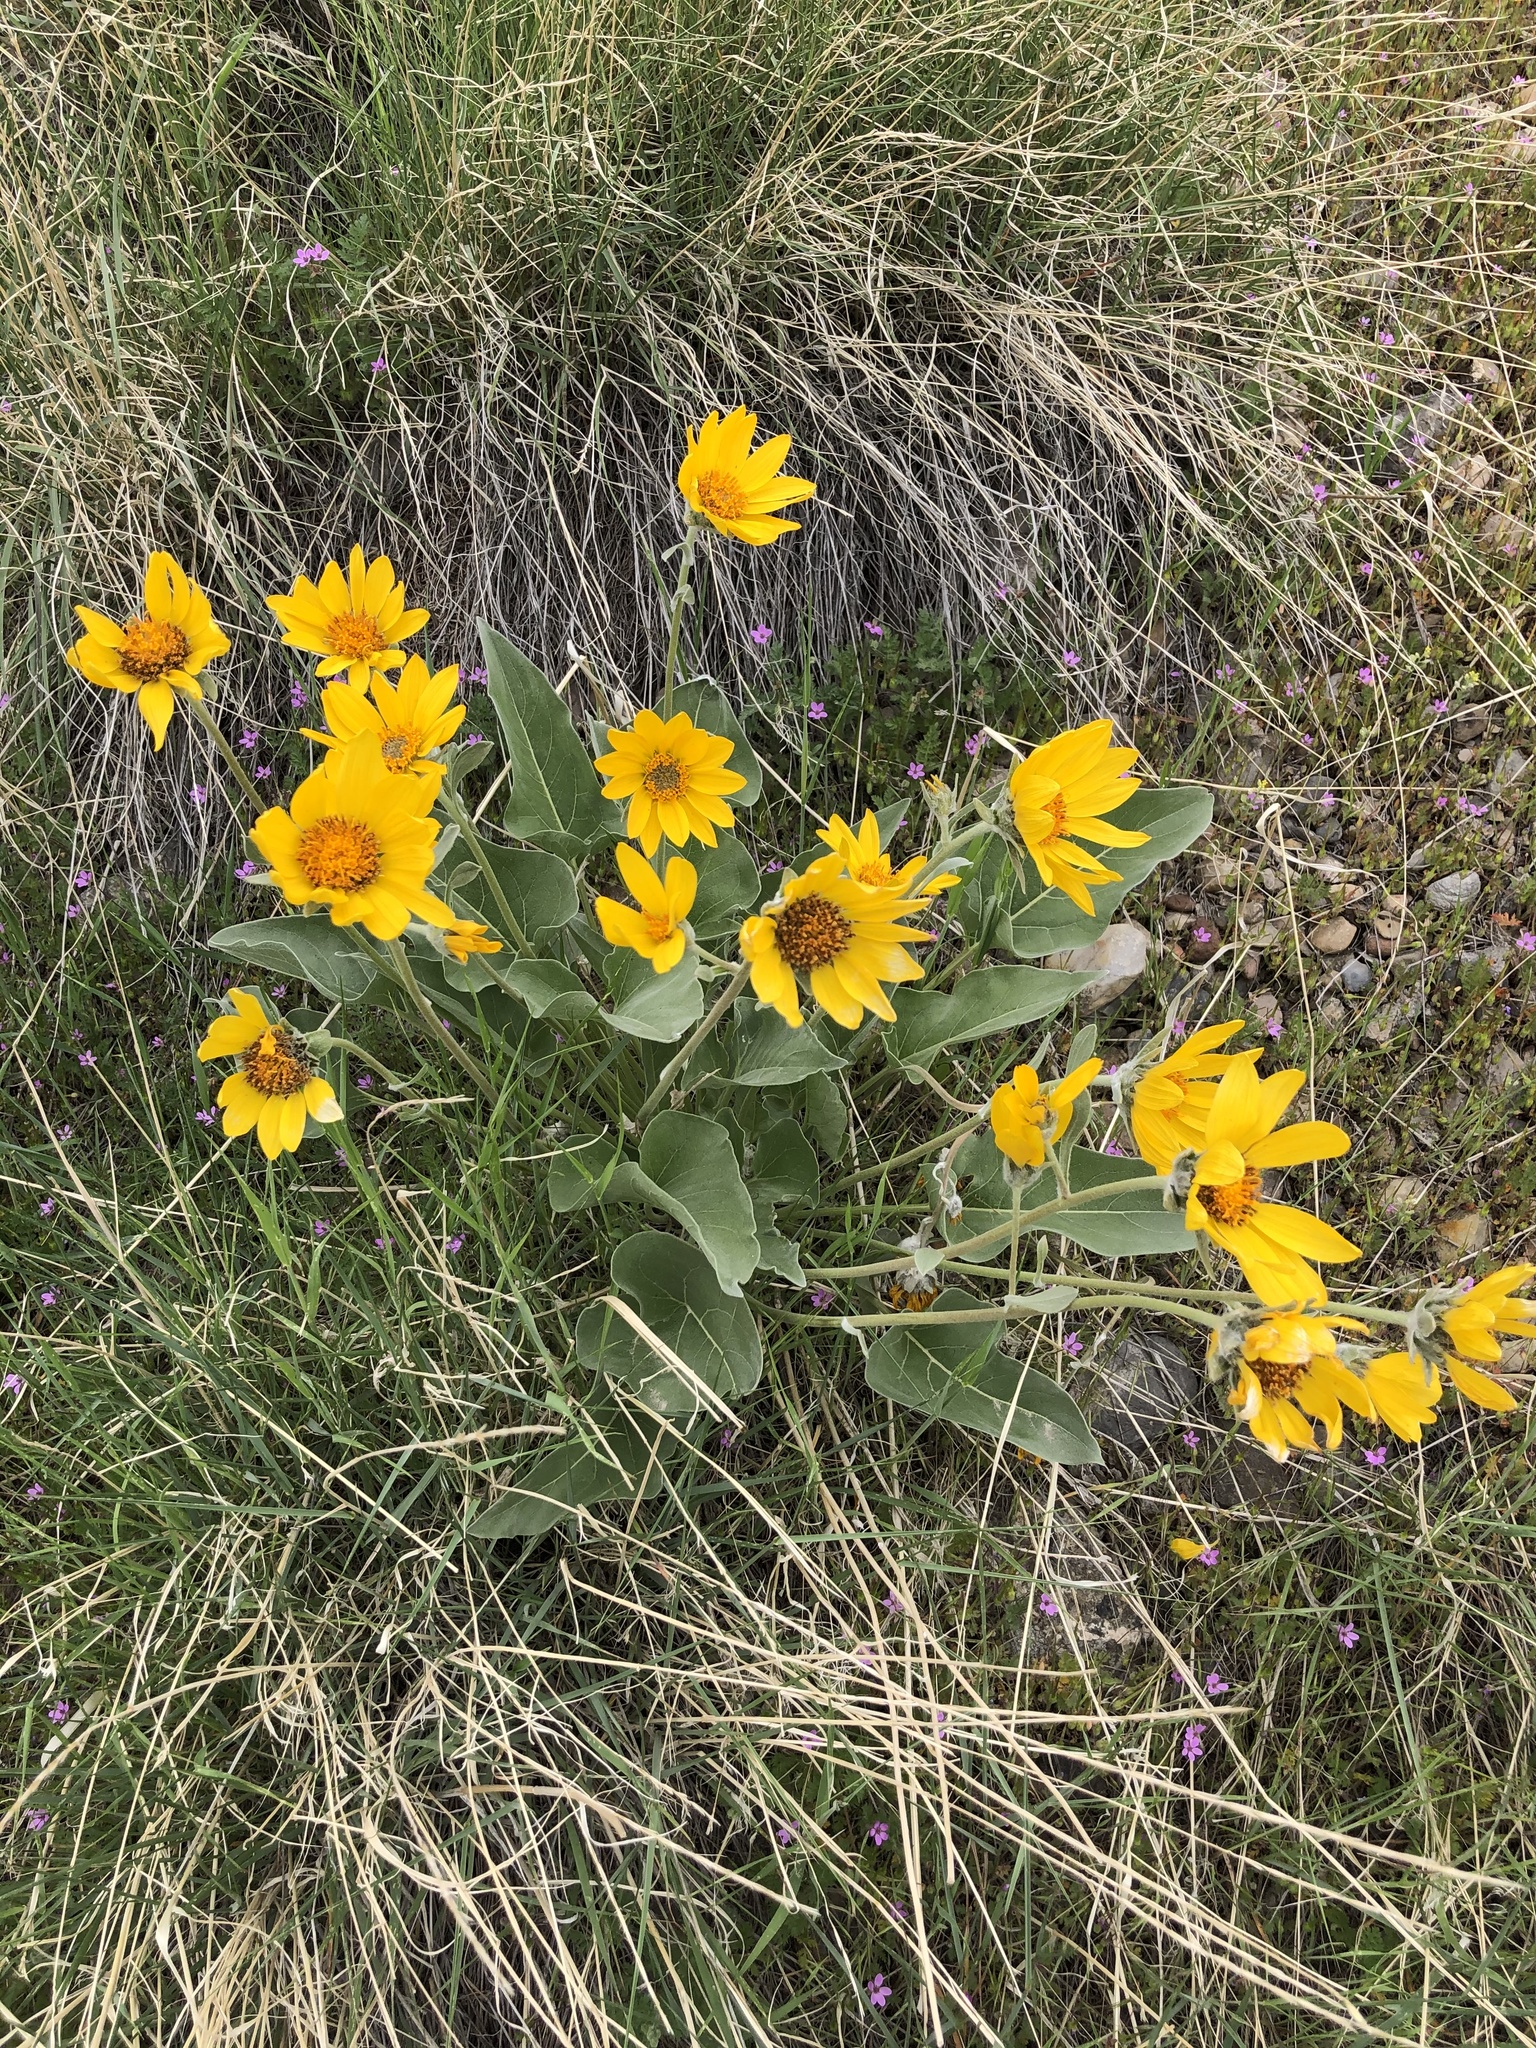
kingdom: Plantae
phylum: Tracheophyta
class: Magnoliopsida
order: Asterales
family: Asteraceae
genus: Wyethia
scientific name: Wyethia sagittata
